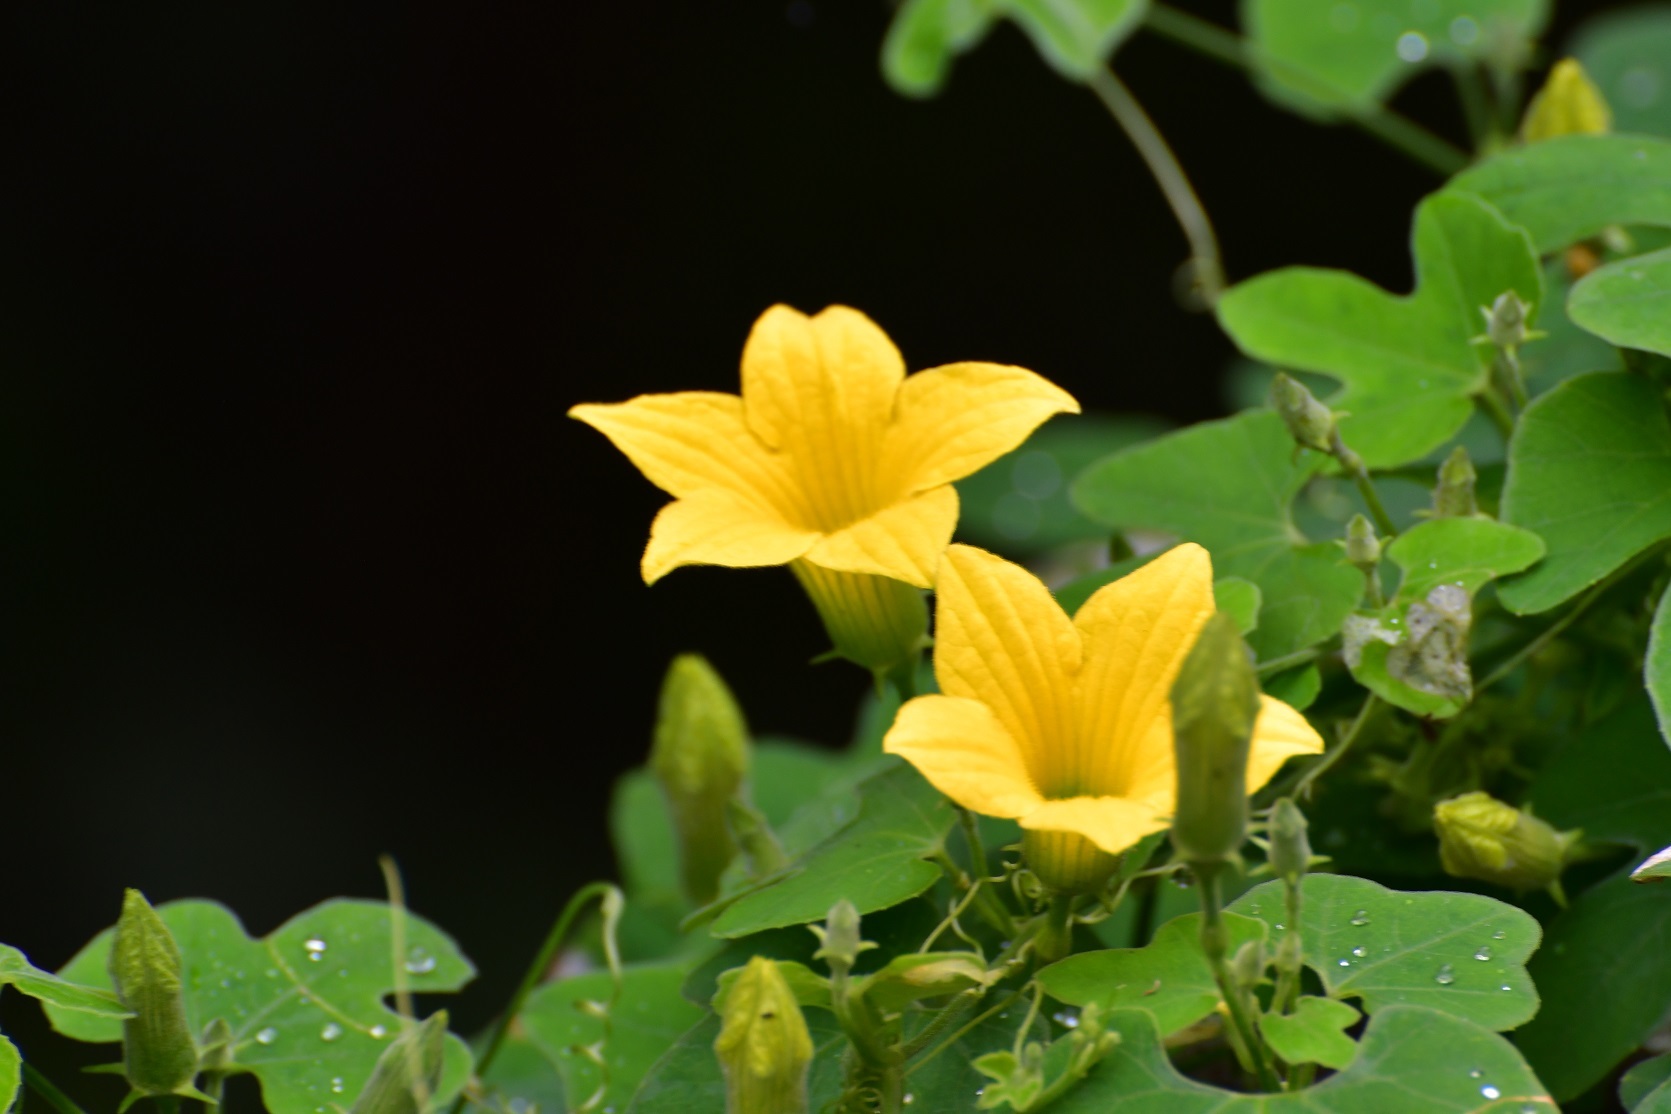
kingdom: Plantae
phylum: Tracheophyta
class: Magnoliopsida
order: Cucurbitales
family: Cucurbitaceae
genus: Schizocarpum
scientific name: Schizocarpum longisepalum
